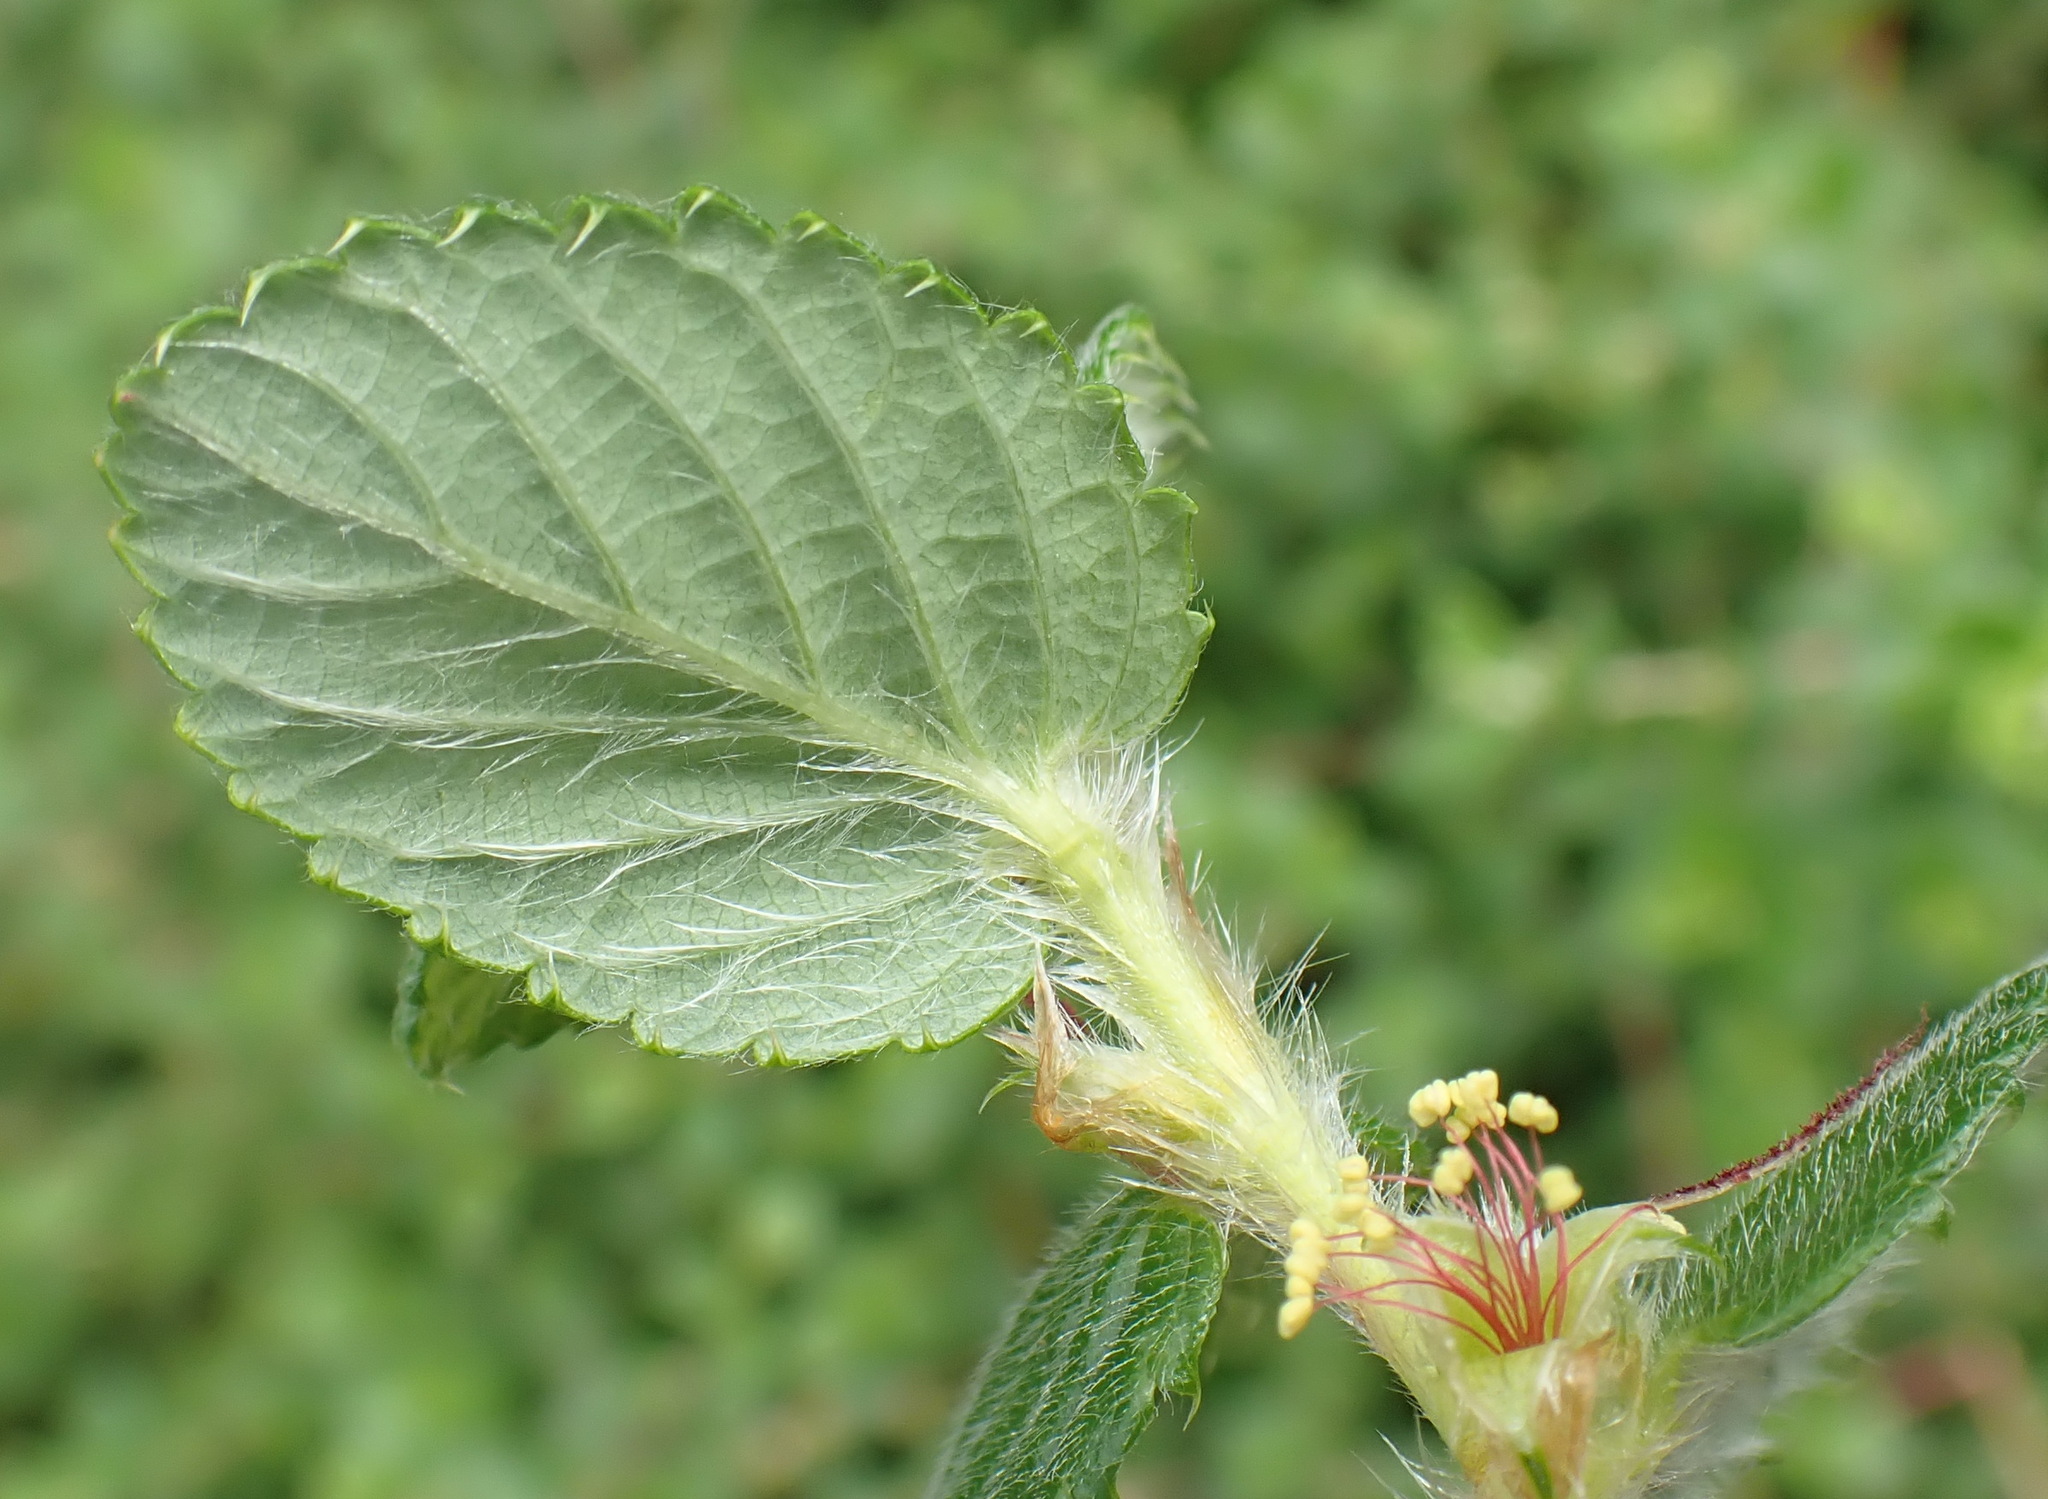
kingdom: Plantae
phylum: Tracheophyta
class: Magnoliopsida
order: Rosales
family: Rosaceae
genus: Cliffortia
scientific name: Cliffortia odorata
